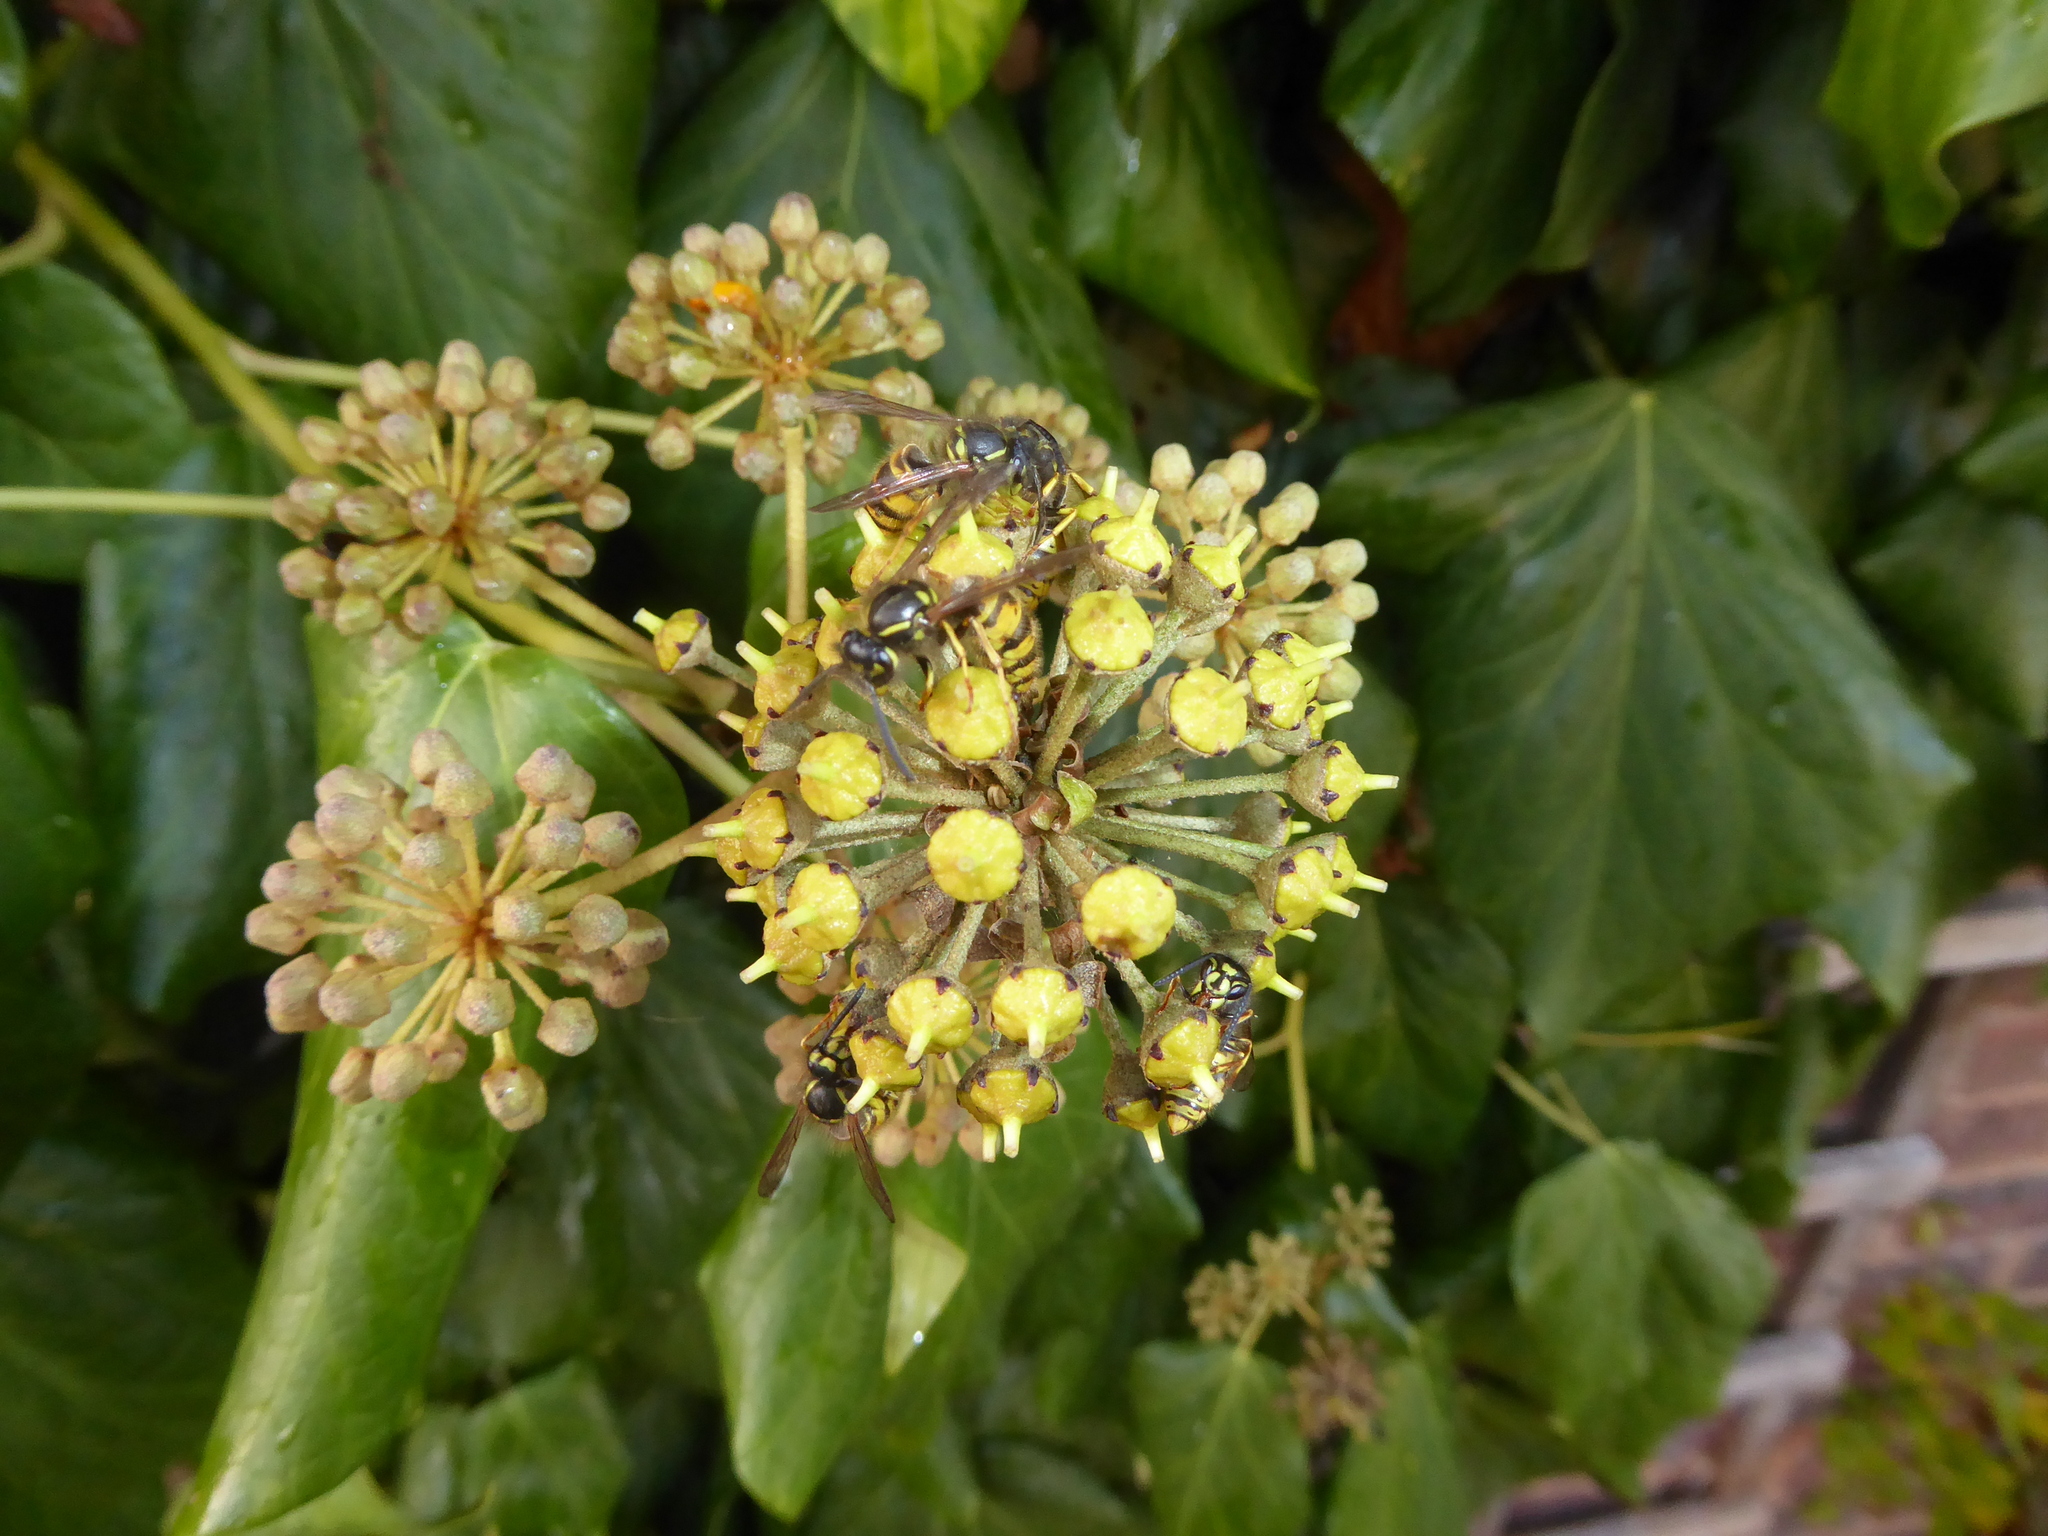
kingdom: Animalia
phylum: Arthropoda
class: Insecta
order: Hymenoptera
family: Vespidae
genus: Vespula
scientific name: Vespula vulgaris
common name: Common wasp
